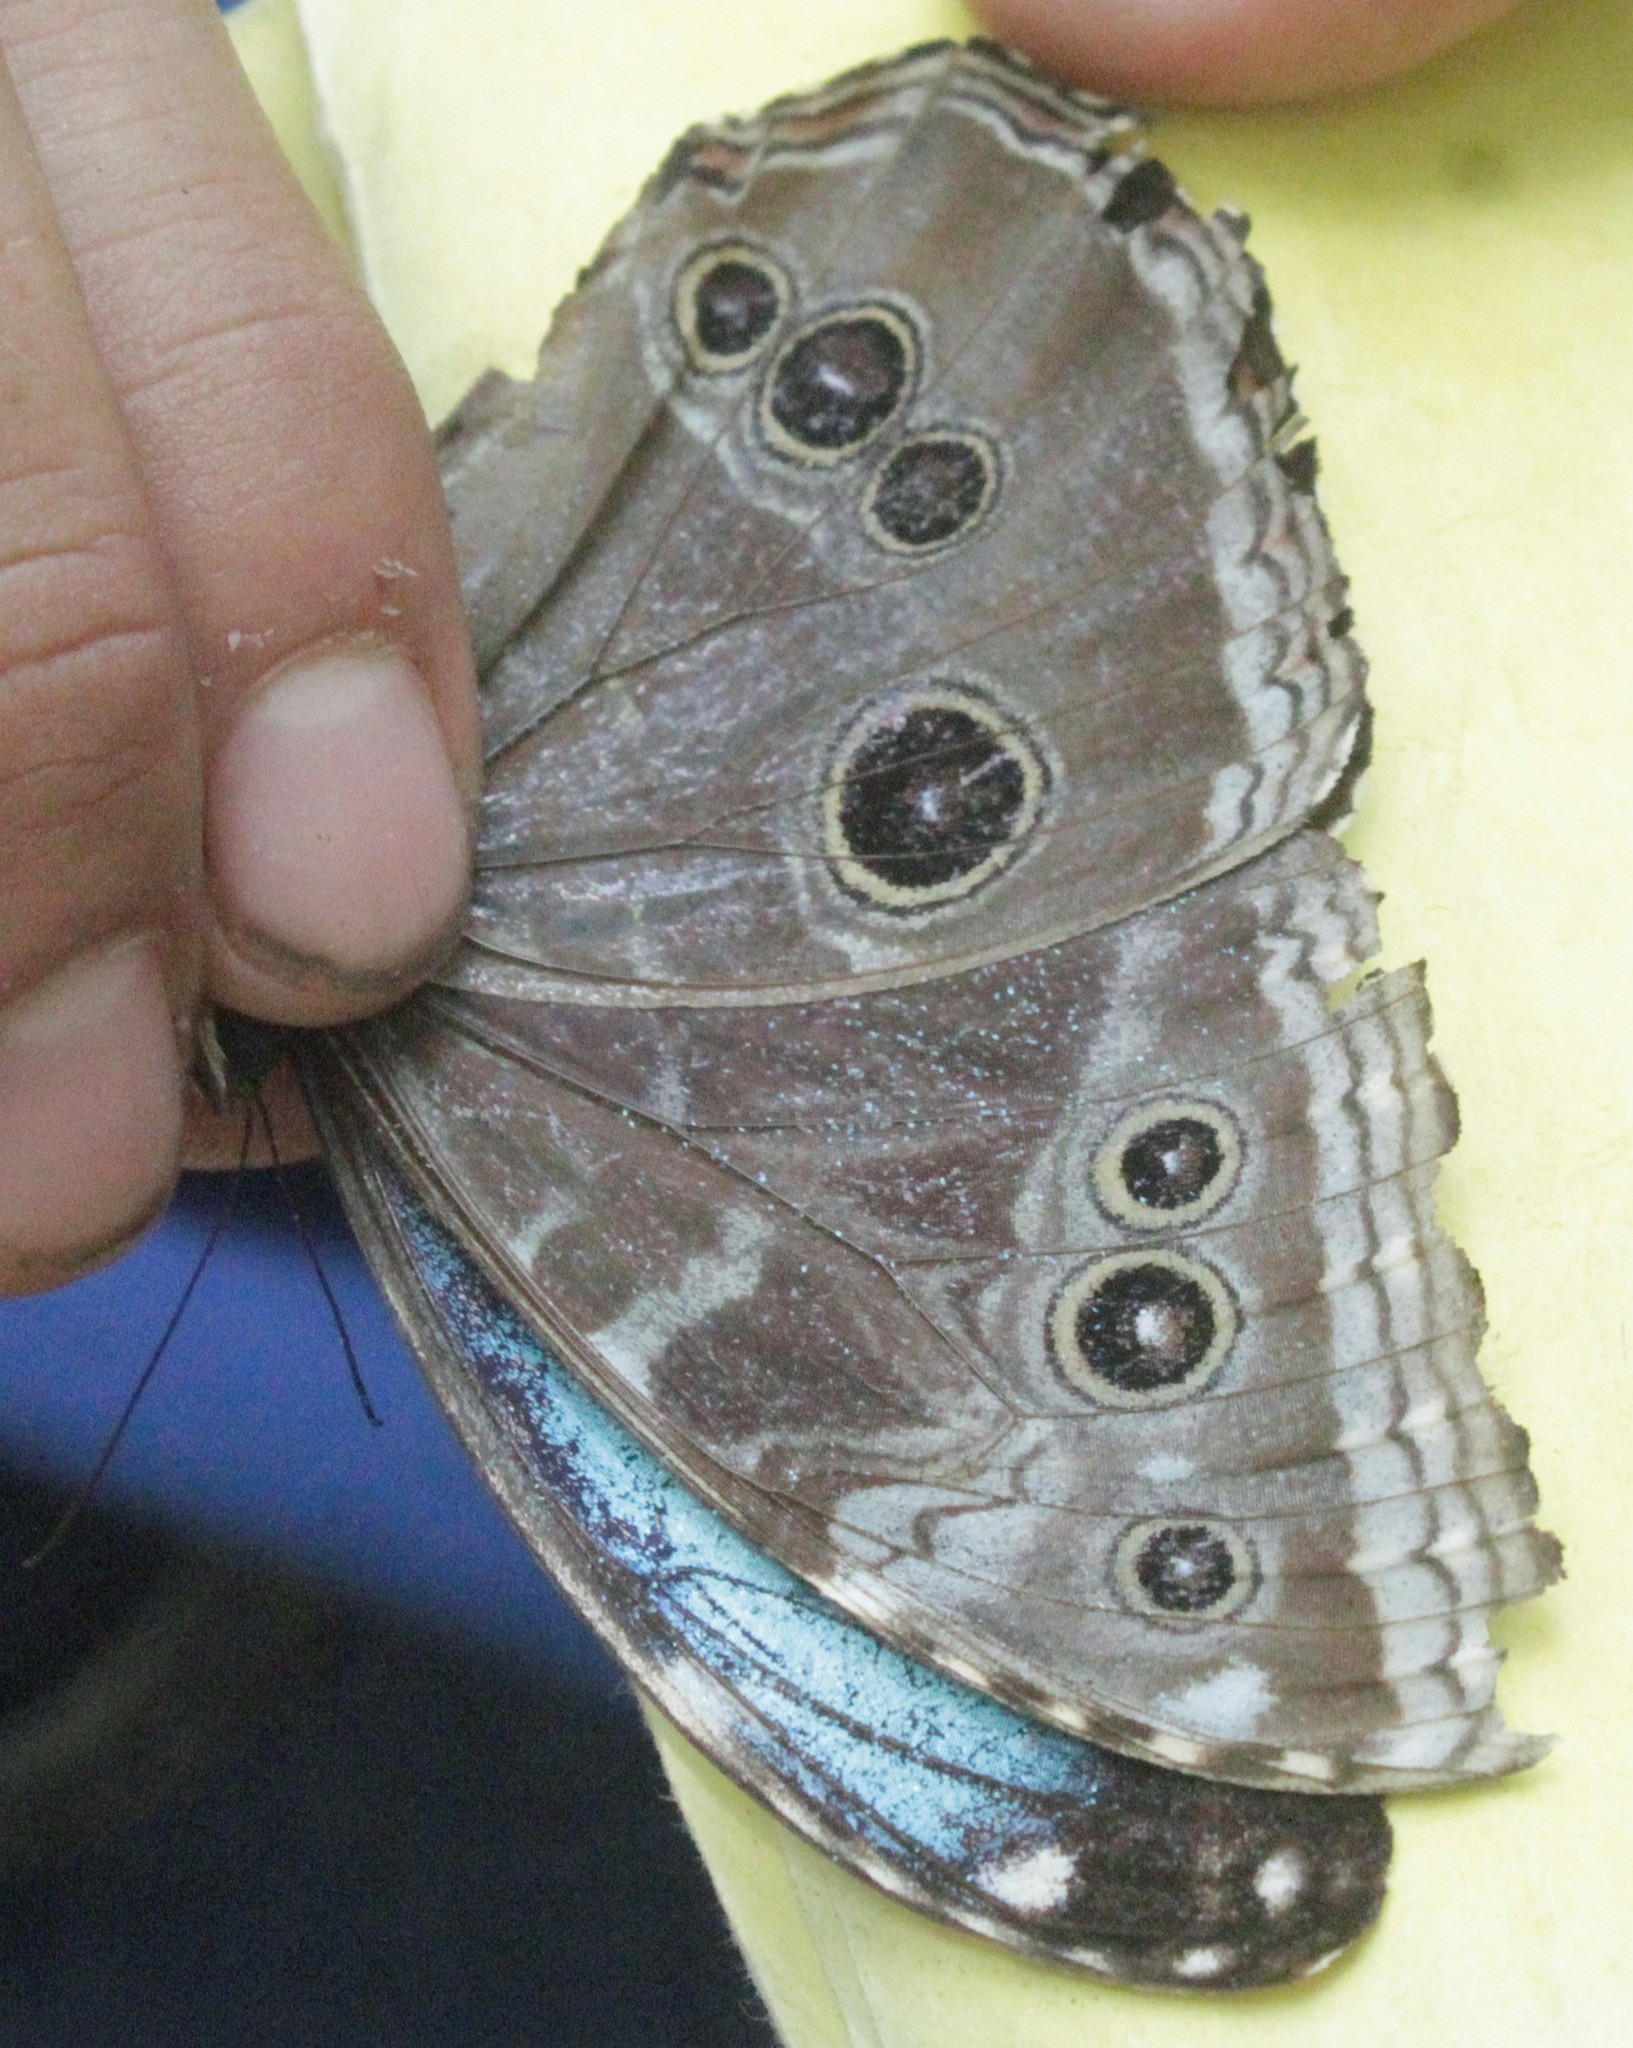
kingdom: Animalia
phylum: Arthropoda
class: Insecta
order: Lepidoptera
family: Nymphalidae
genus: Morpho
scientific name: Morpho helenor
